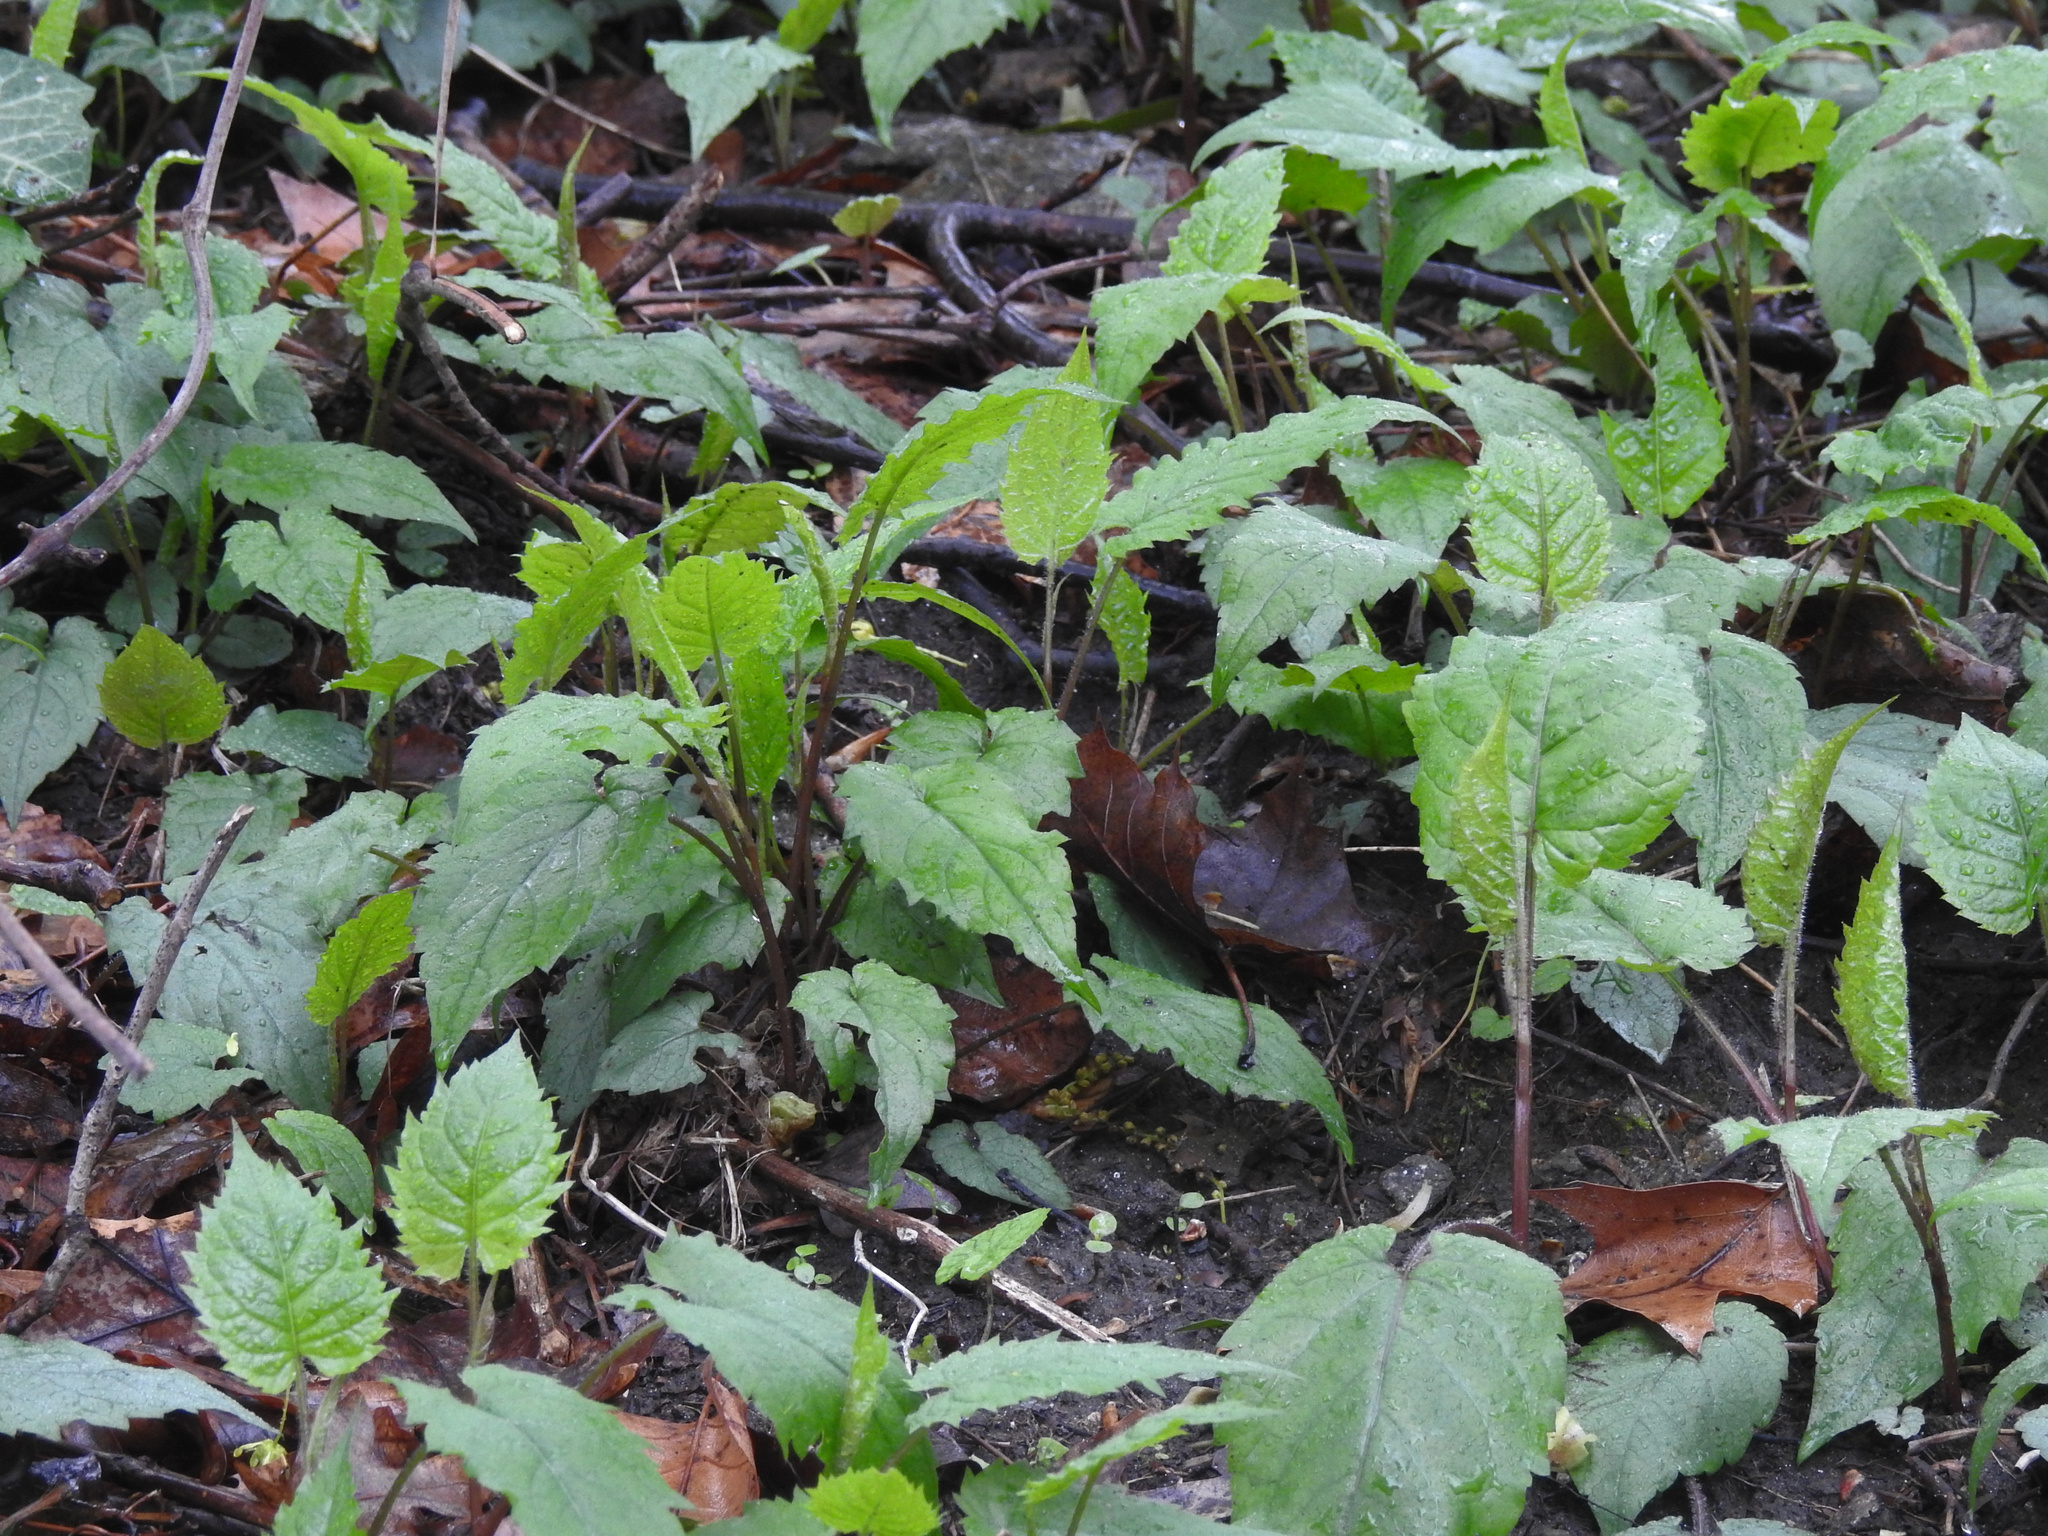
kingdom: Plantae
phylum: Tracheophyta
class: Magnoliopsida
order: Asterales
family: Asteraceae
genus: Eurybia
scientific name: Eurybia divaricata
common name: White wood aster
